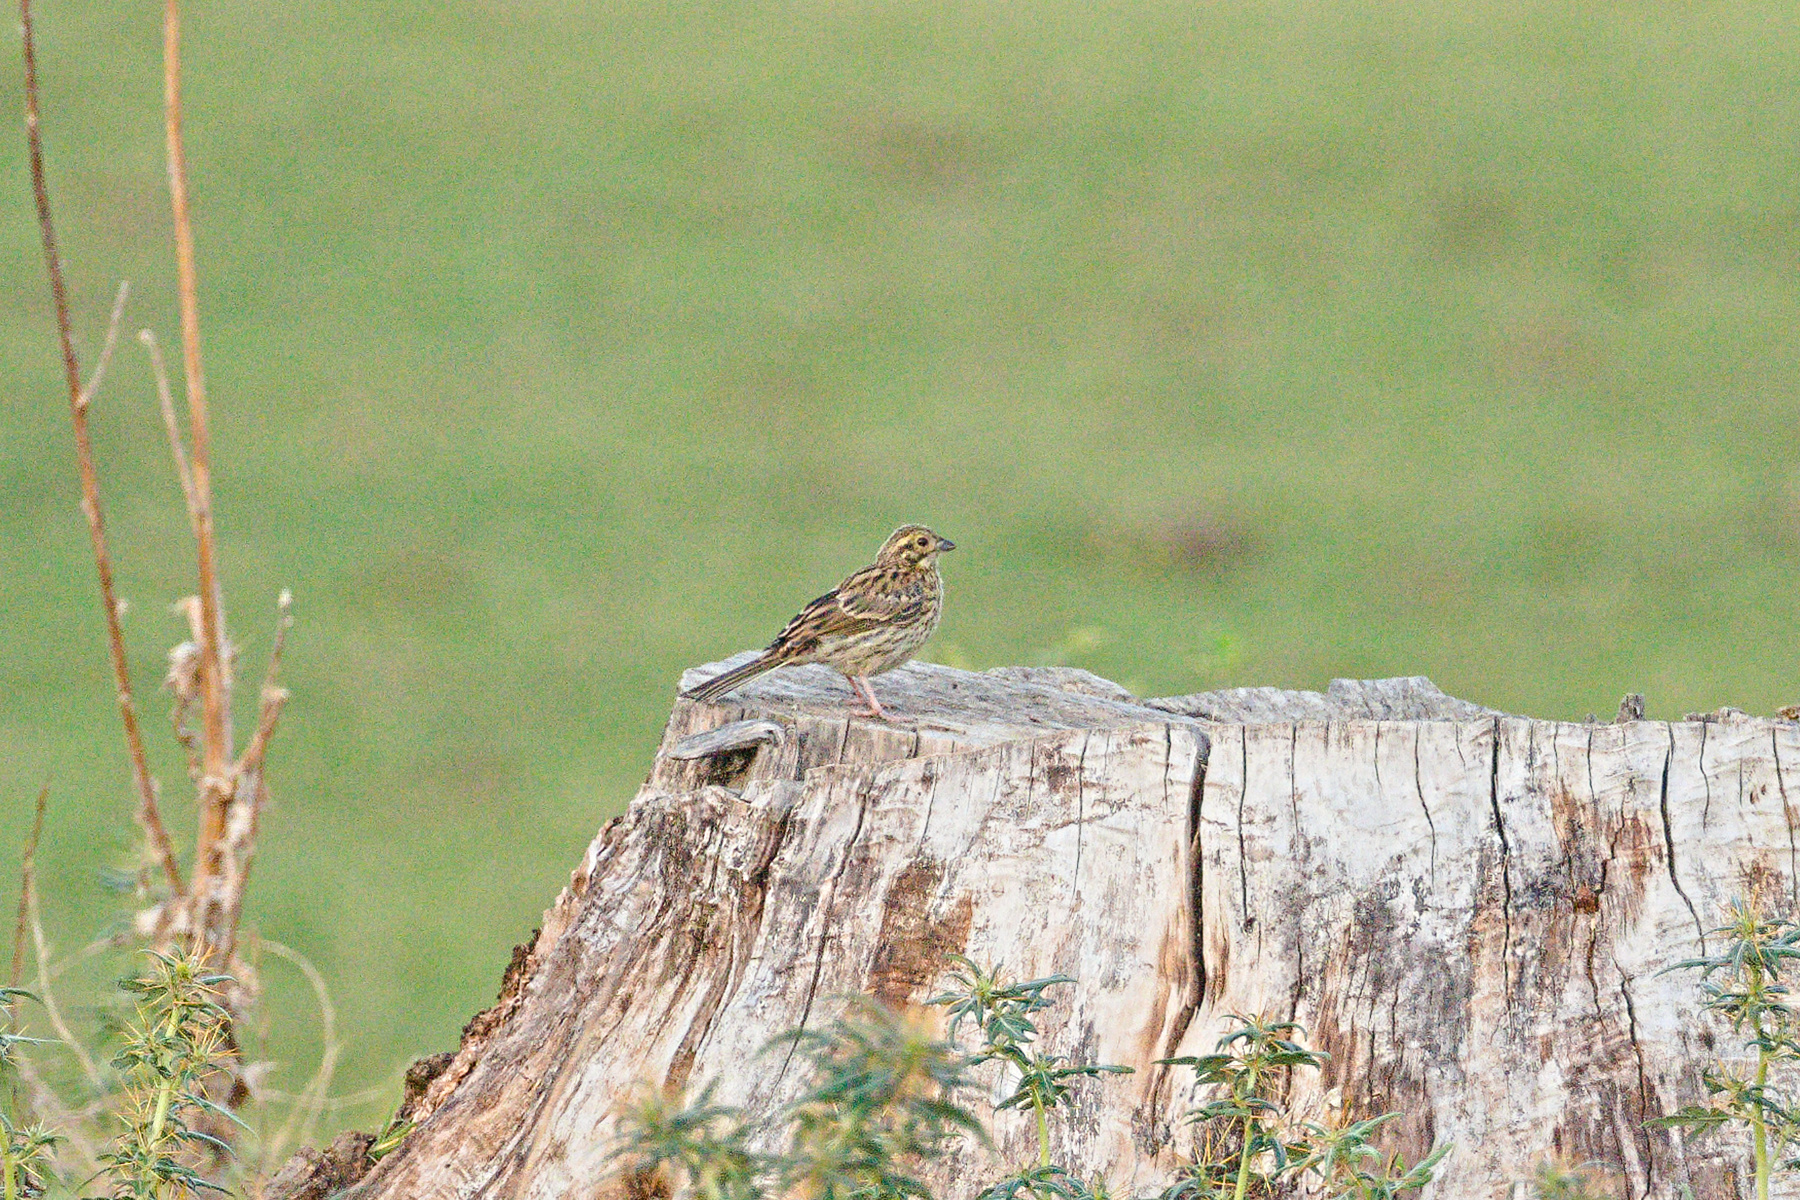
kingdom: Animalia
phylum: Chordata
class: Aves
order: Passeriformes
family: Emberizidae
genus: Emberiza
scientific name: Emberiza cirlus
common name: Cirl bunting
